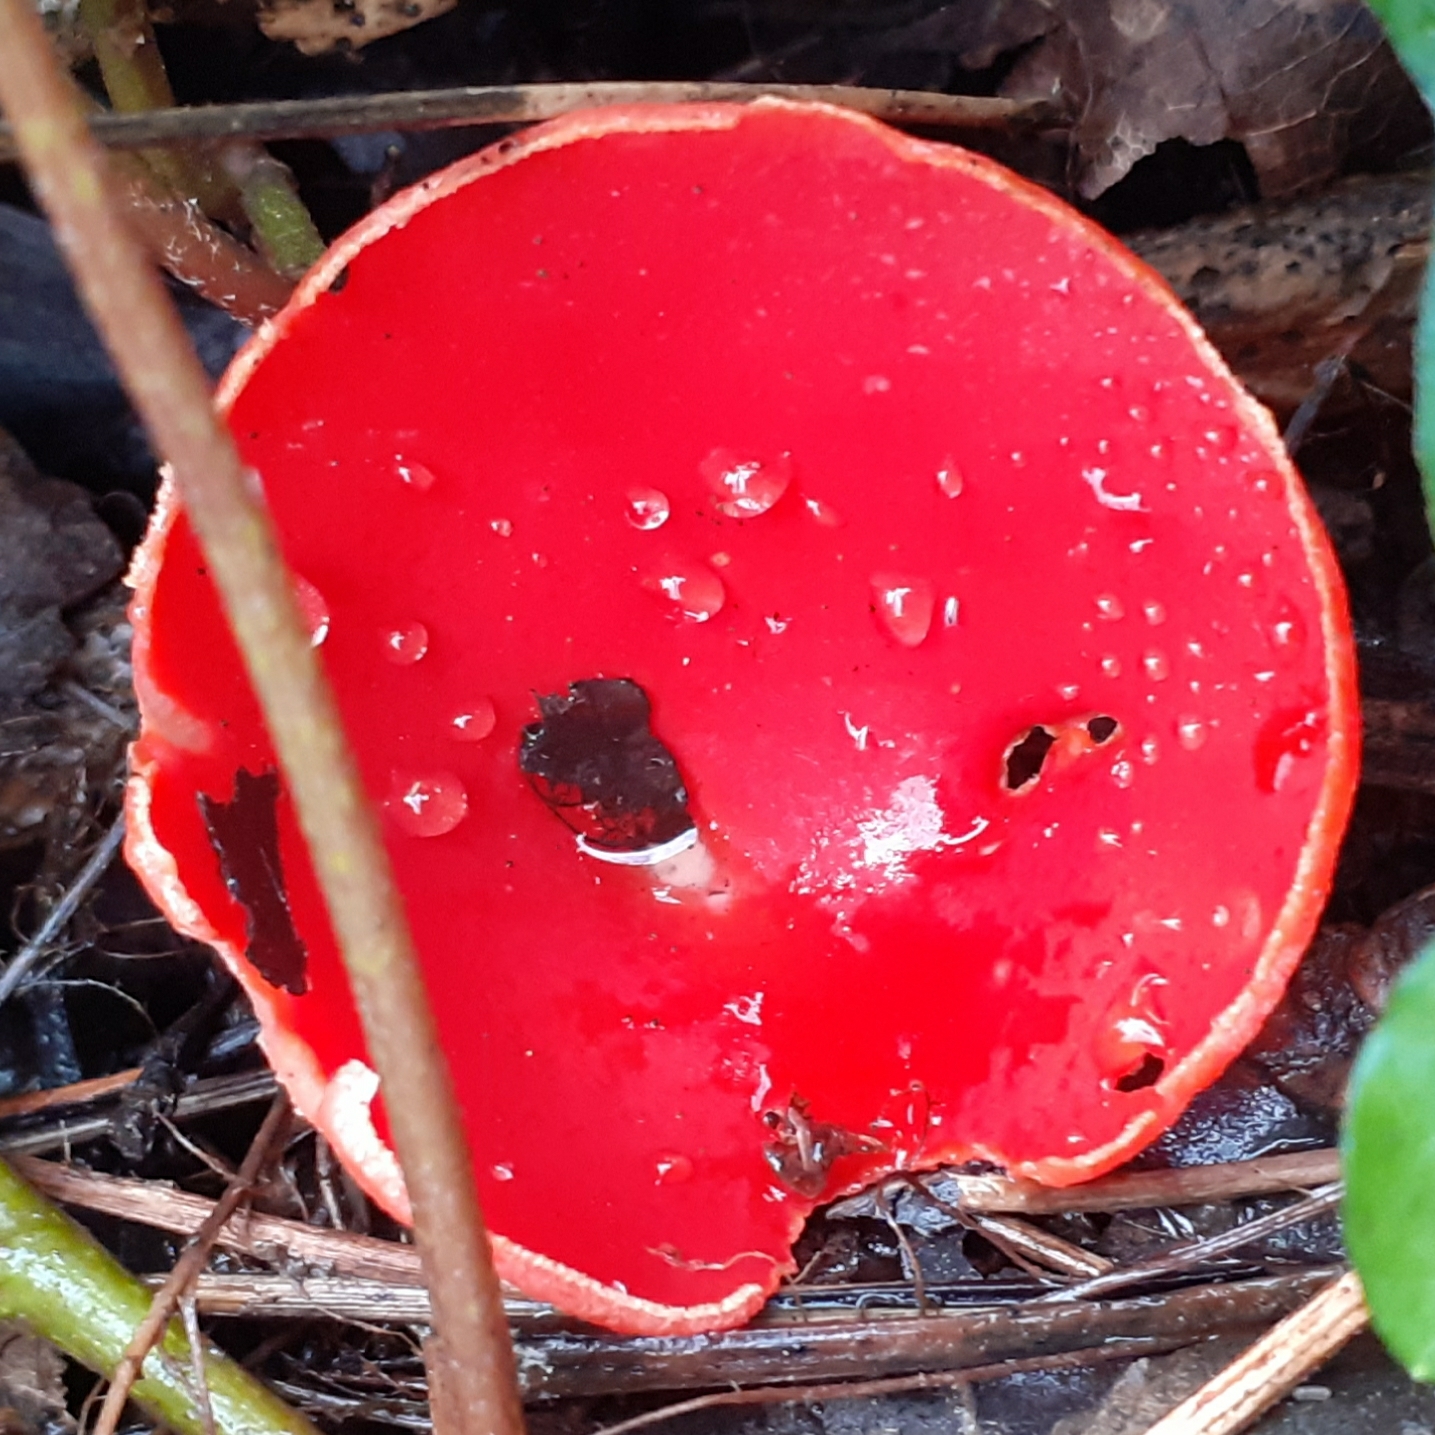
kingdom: Fungi
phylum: Ascomycota
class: Pezizomycetes
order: Pezizales
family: Sarcoscyphaceae
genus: Sarcoscypha
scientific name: Sarcoscypha
